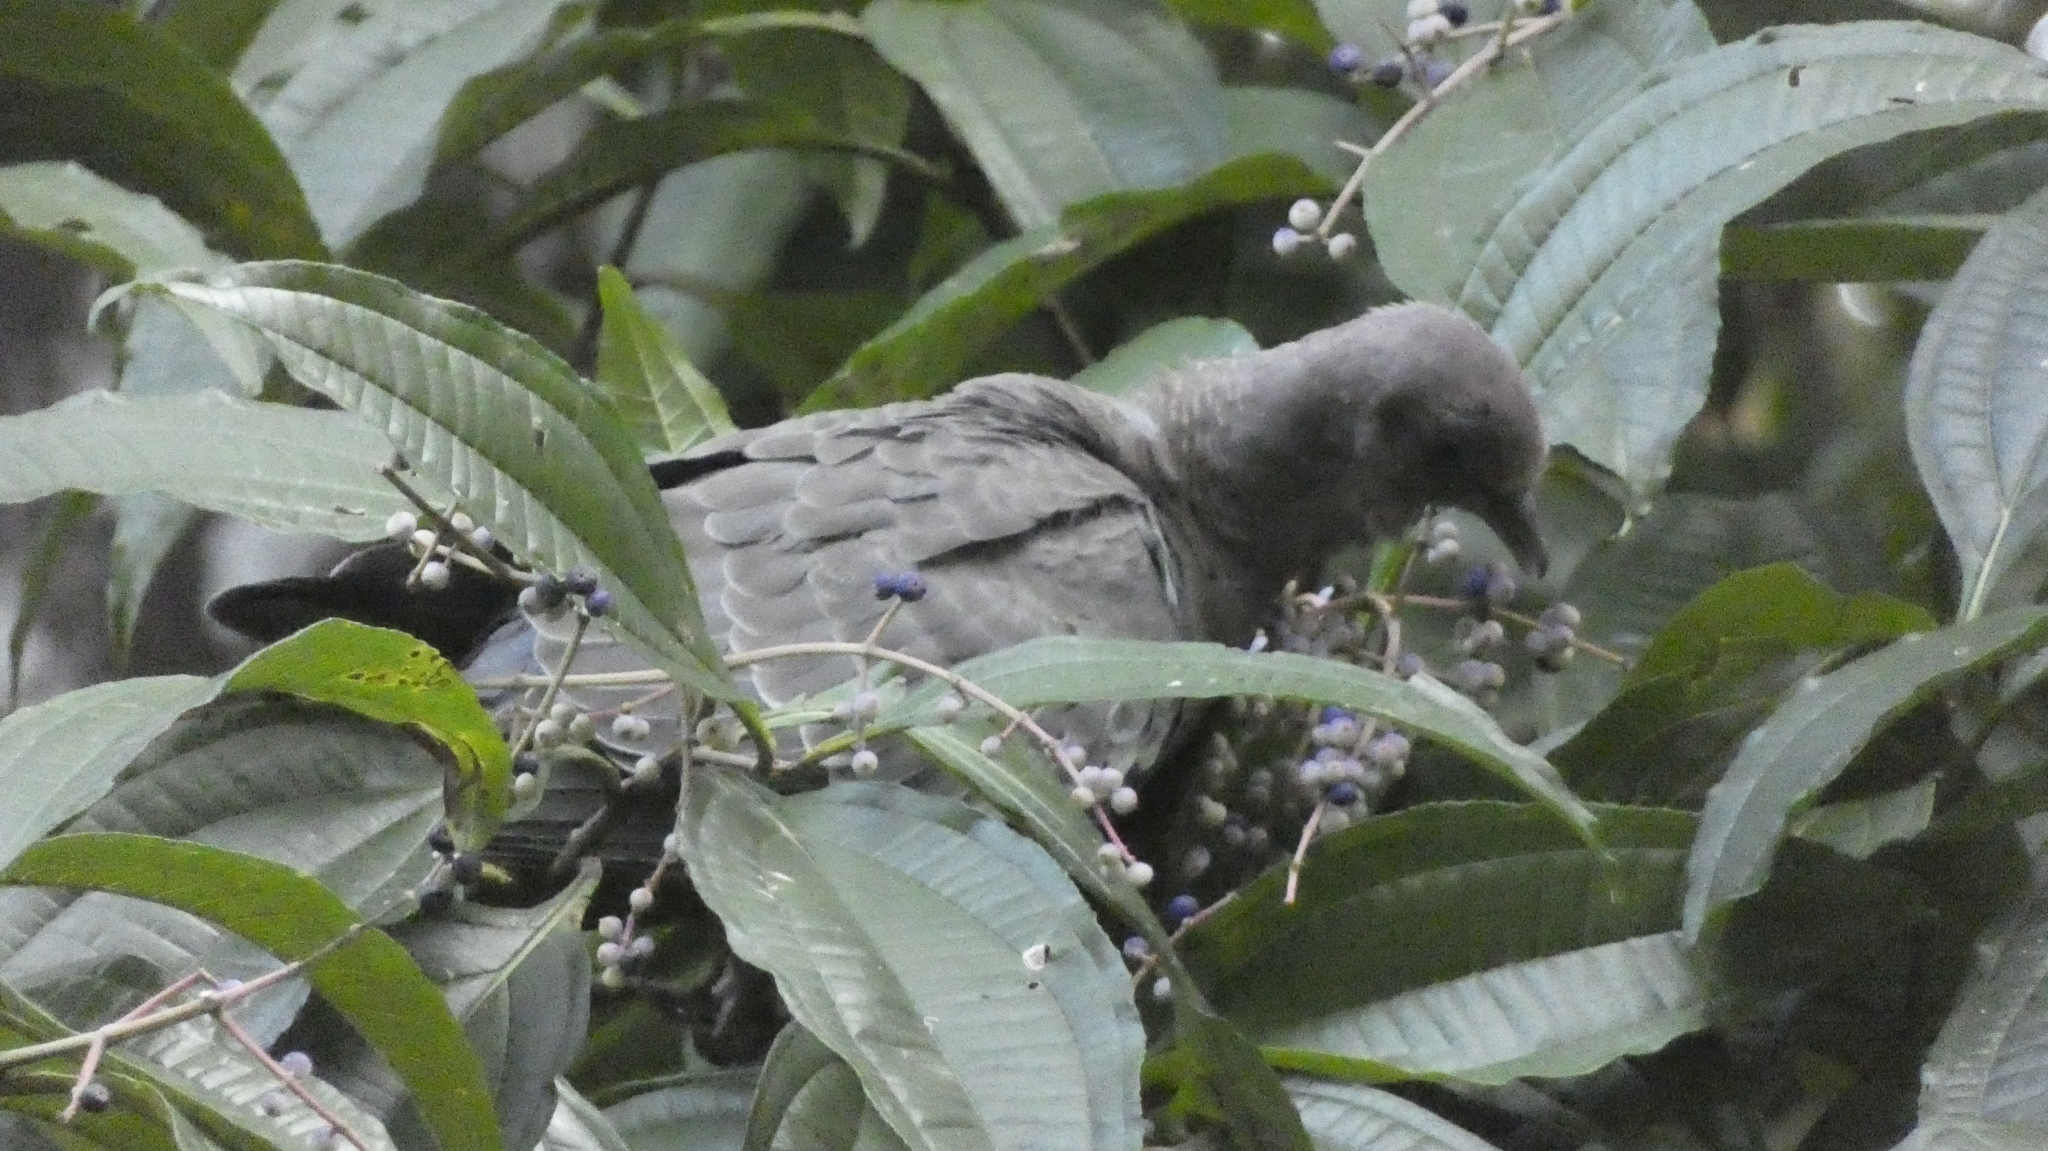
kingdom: Animalia
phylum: Chordata
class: Aves
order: Columbiformes
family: Columbidae
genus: Patagioenas
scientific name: Patagioenas picazuro
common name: Picazuro pigeon
